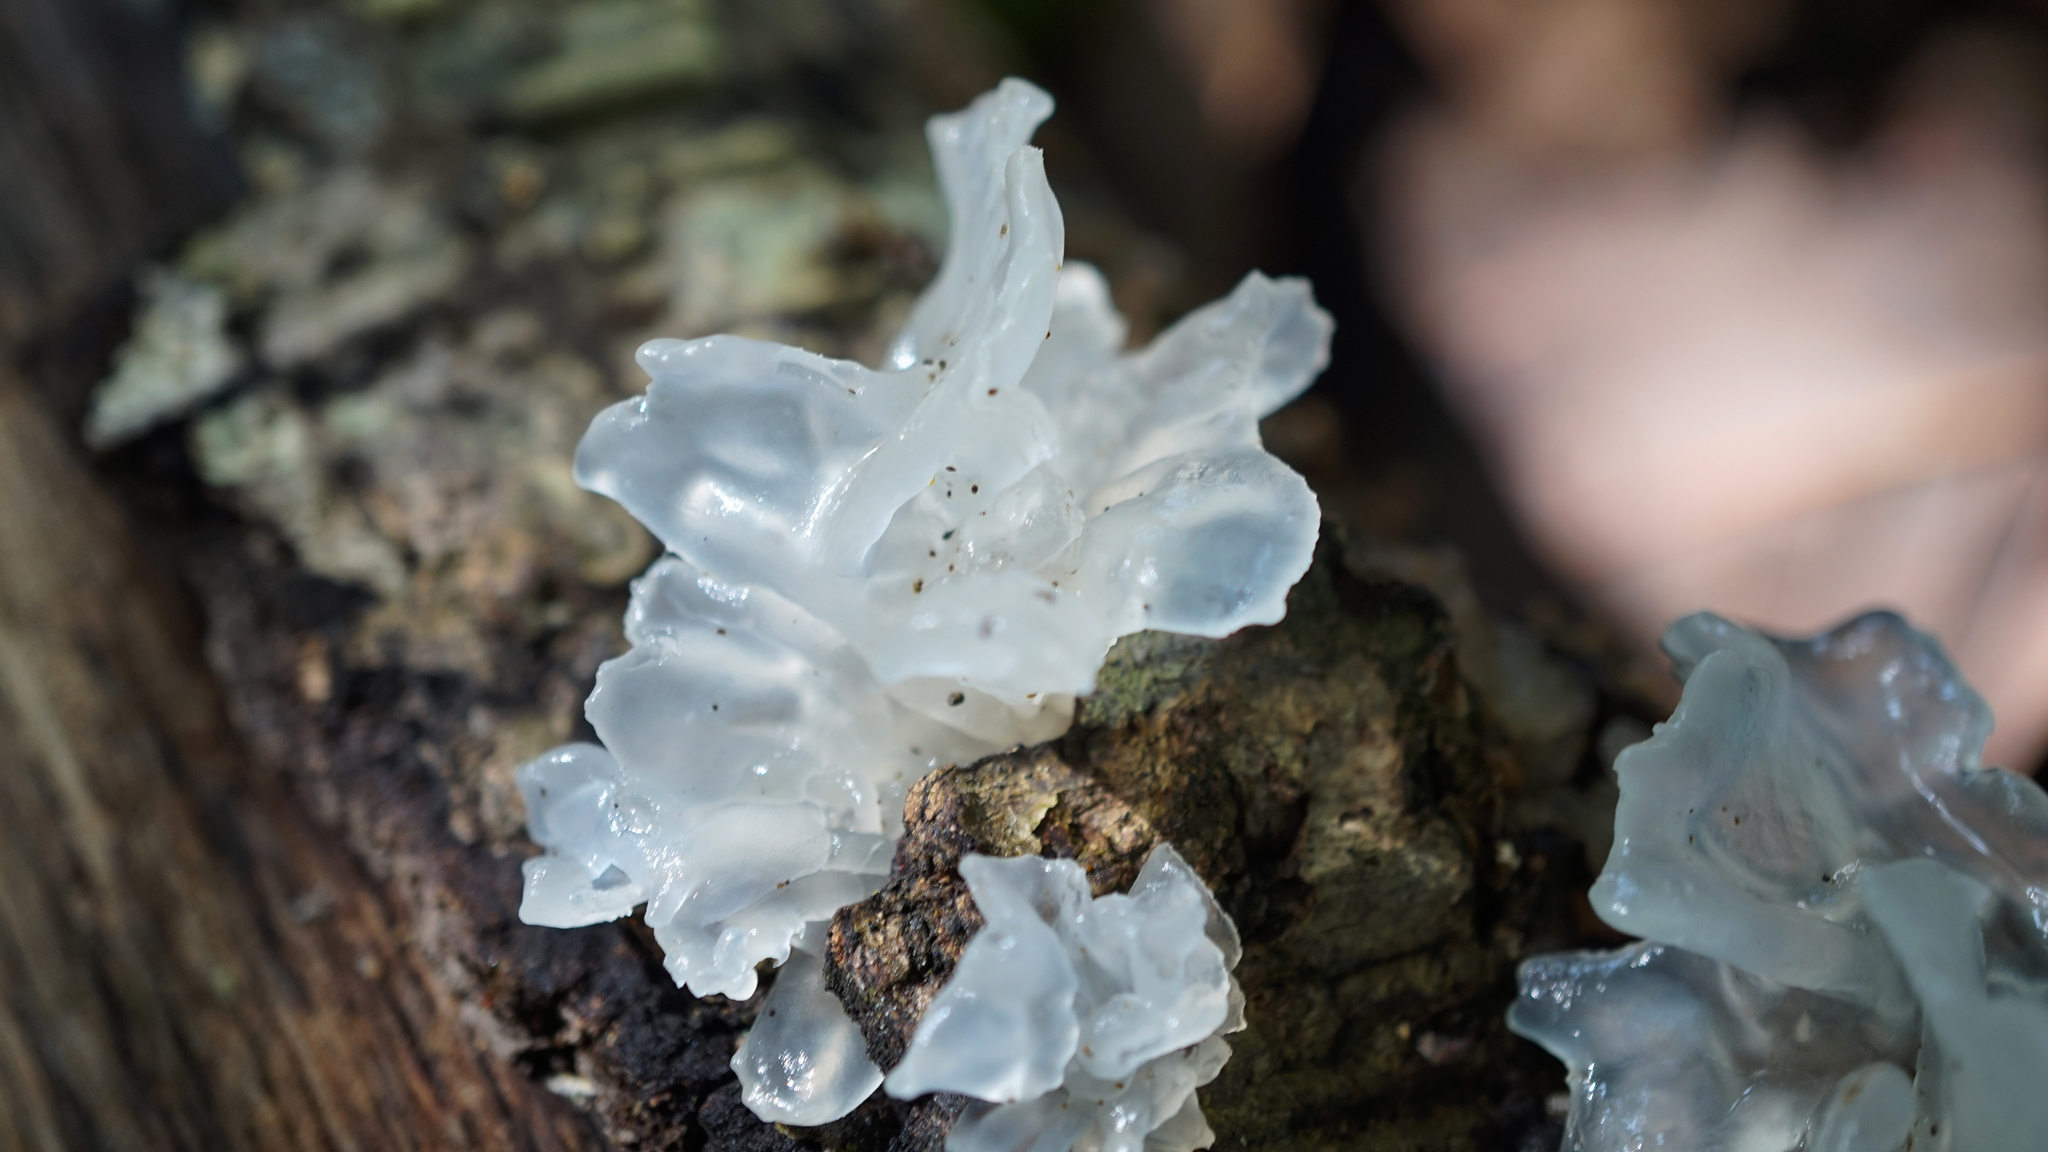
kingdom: Fungi
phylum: Basidiomycota
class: Tremellomycetes
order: Tremellales
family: Tremellaceae
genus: Tremella
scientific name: Tremella fuciformis
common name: Snow fungus
